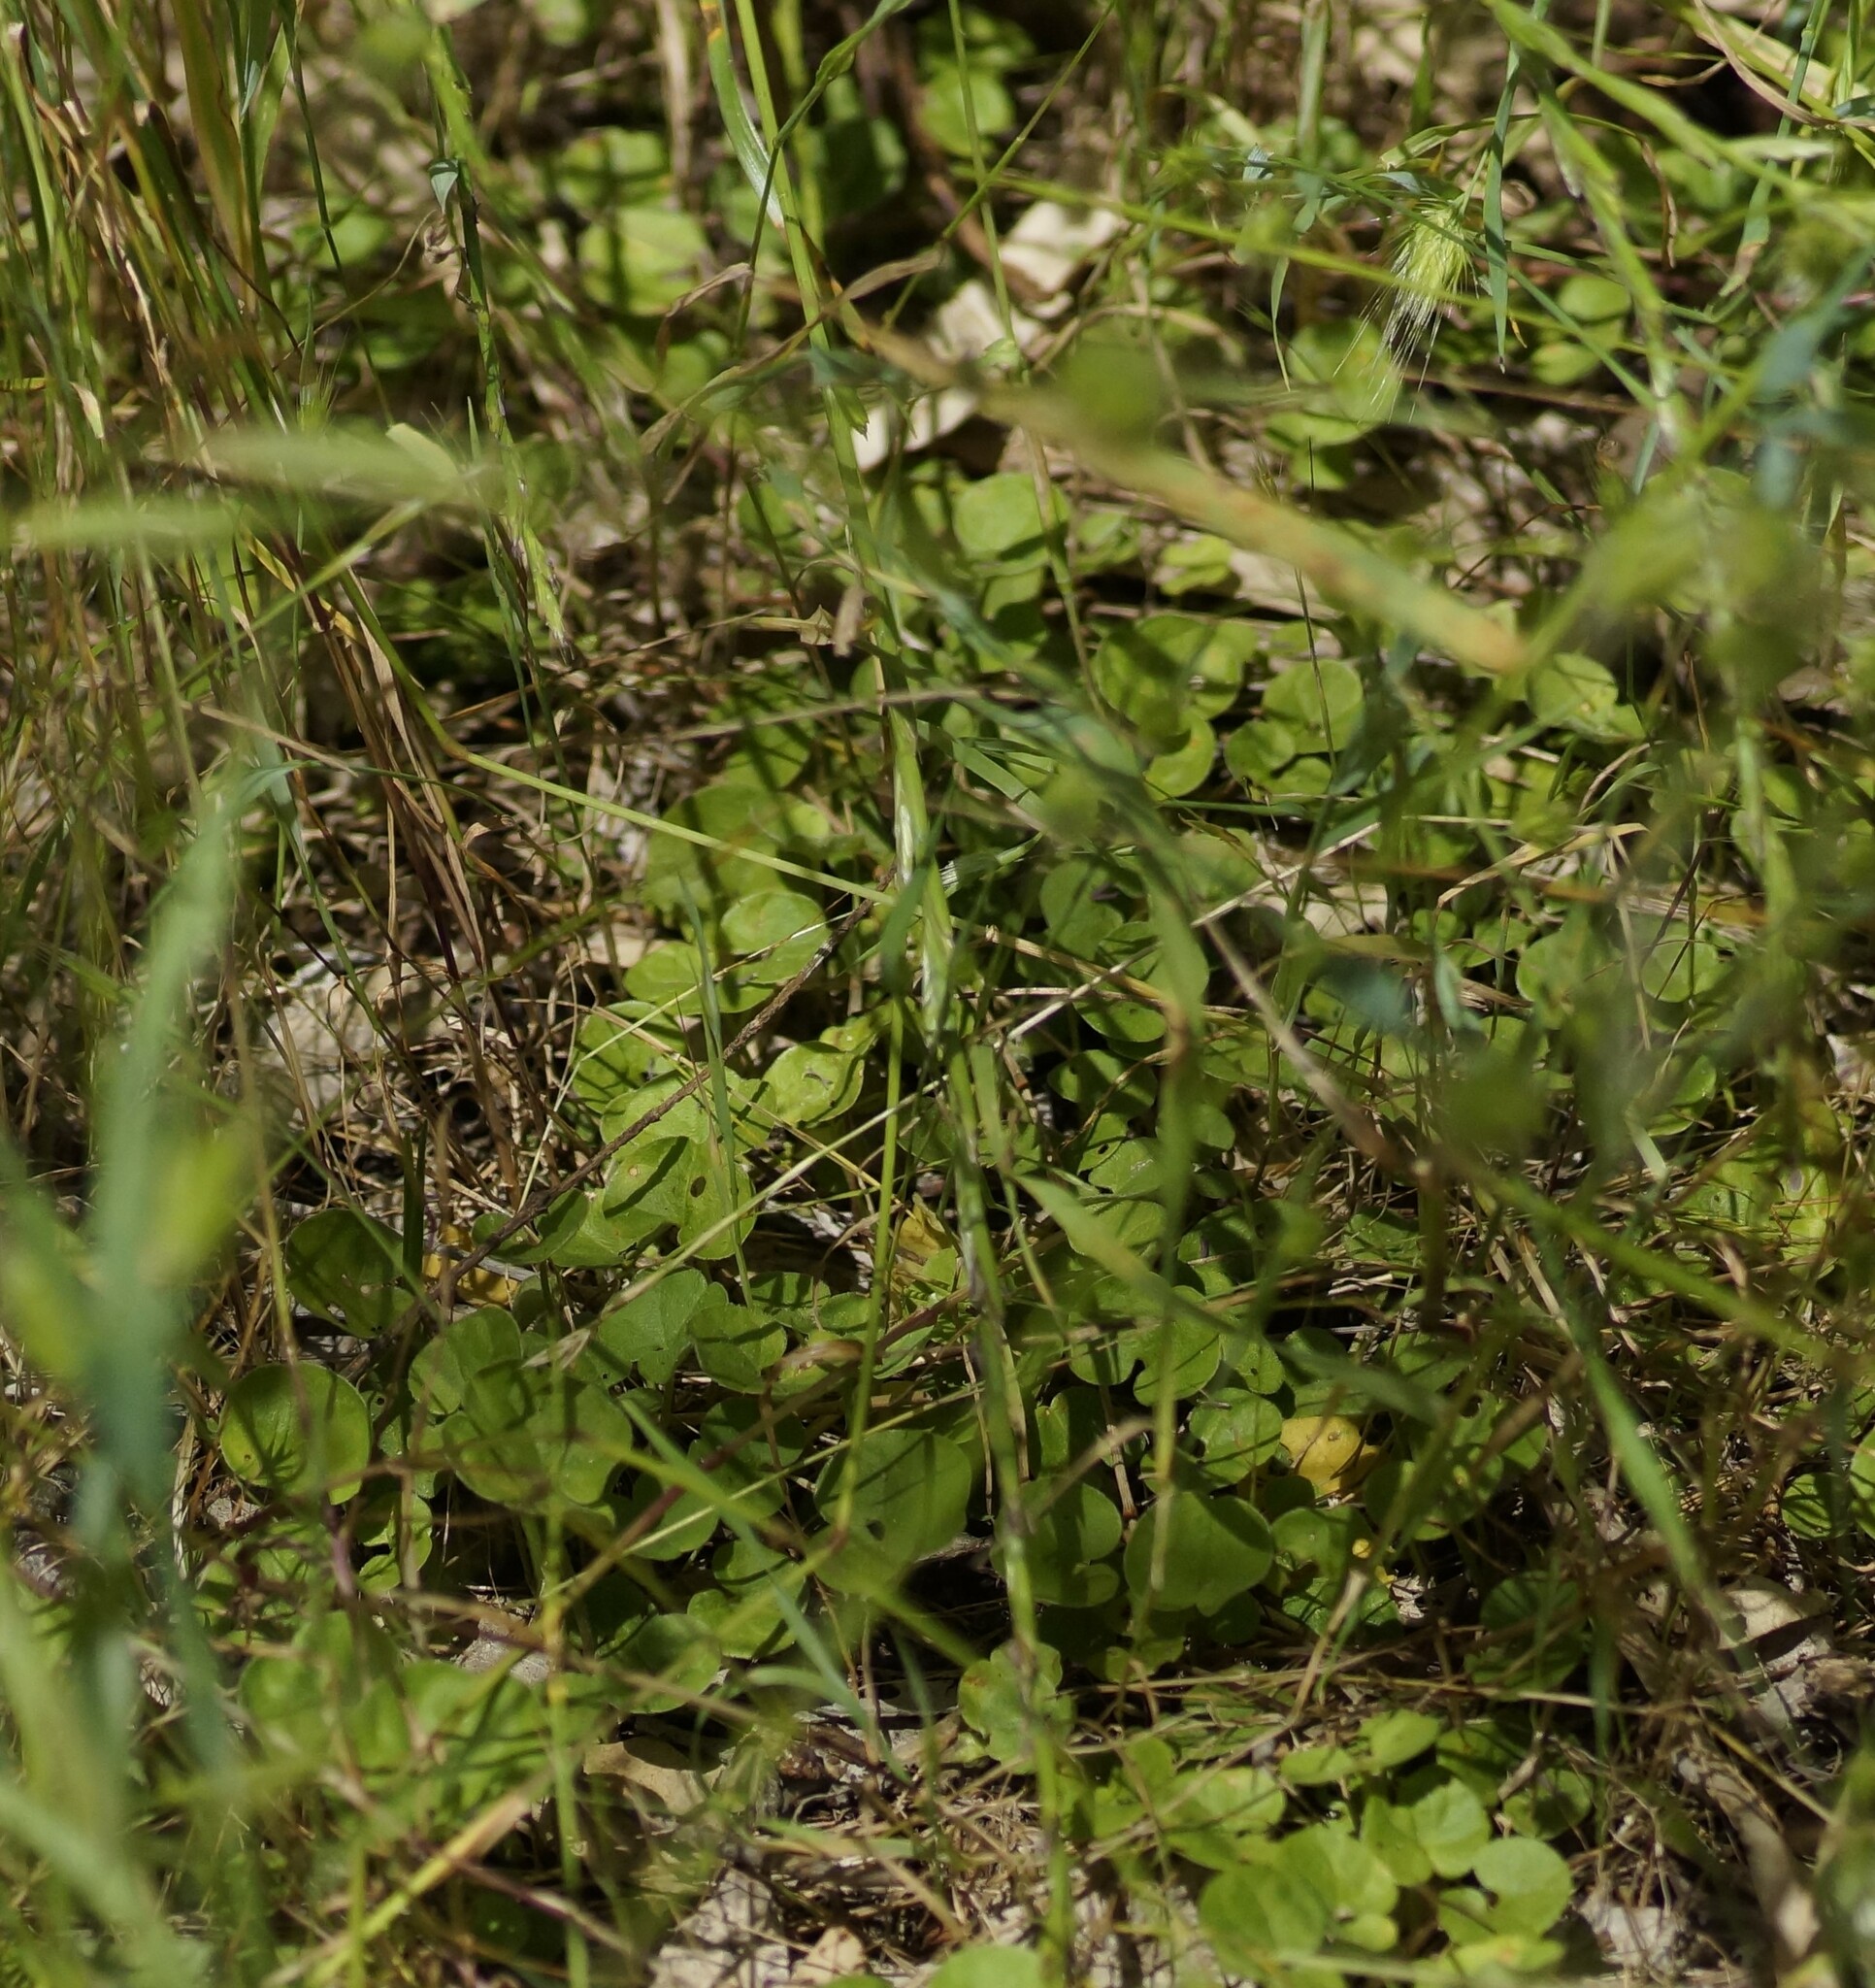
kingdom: Plantae
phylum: Tracheophyta
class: Magnoliopsida
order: Solanales
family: Convolvulaceae
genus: Dichondra
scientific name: Dichondra repens
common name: Kidneyweed
